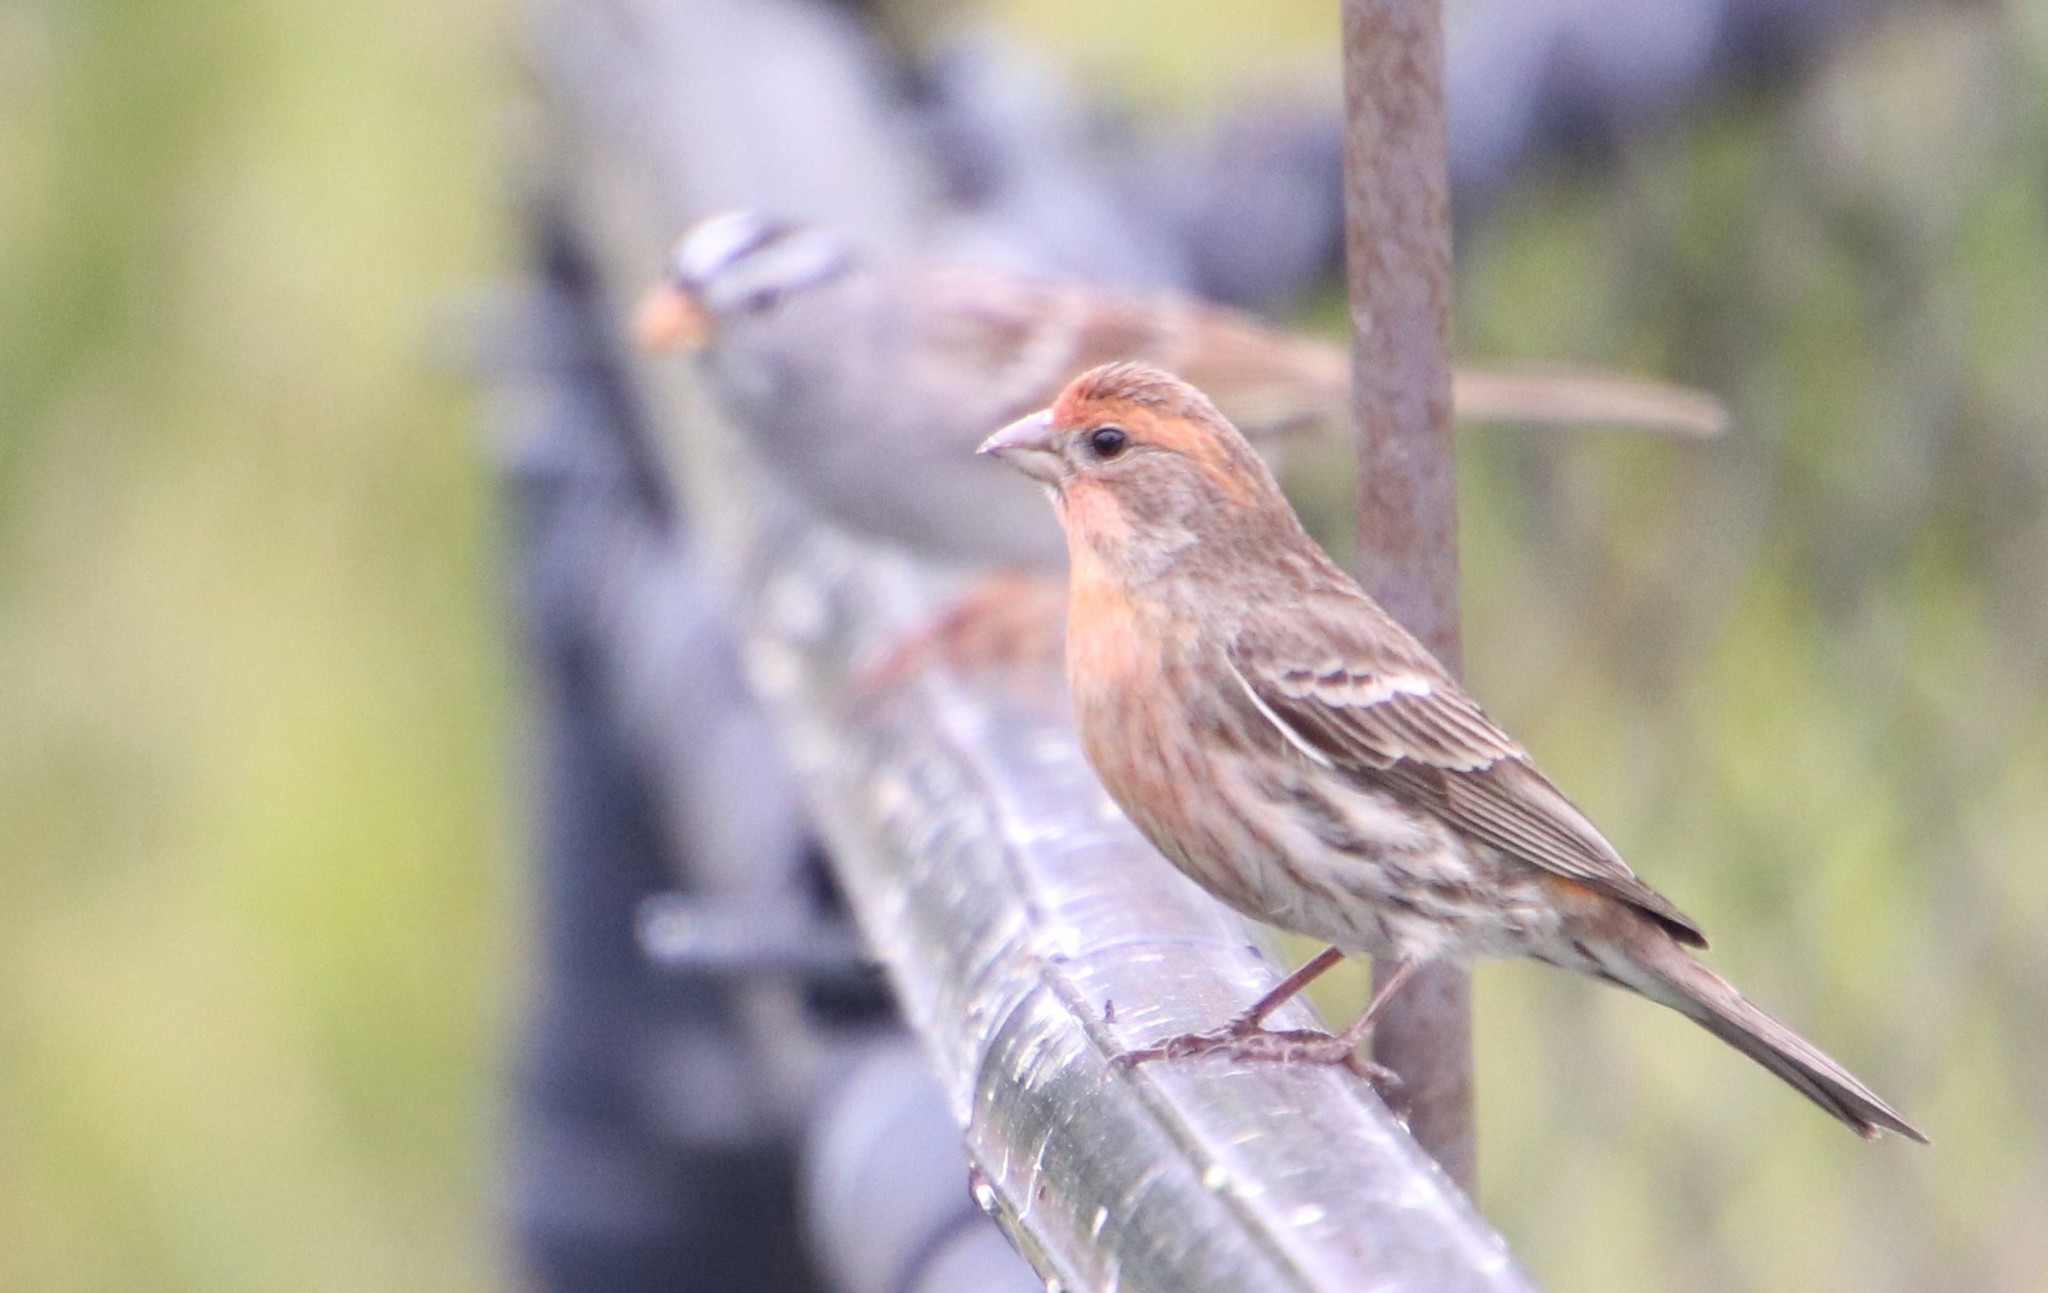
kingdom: Animalia
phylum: Chordata
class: Aves
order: Passeriformes
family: Fringillidae
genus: Haemorhous
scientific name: Haemorhous mexicanus
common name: House finch
